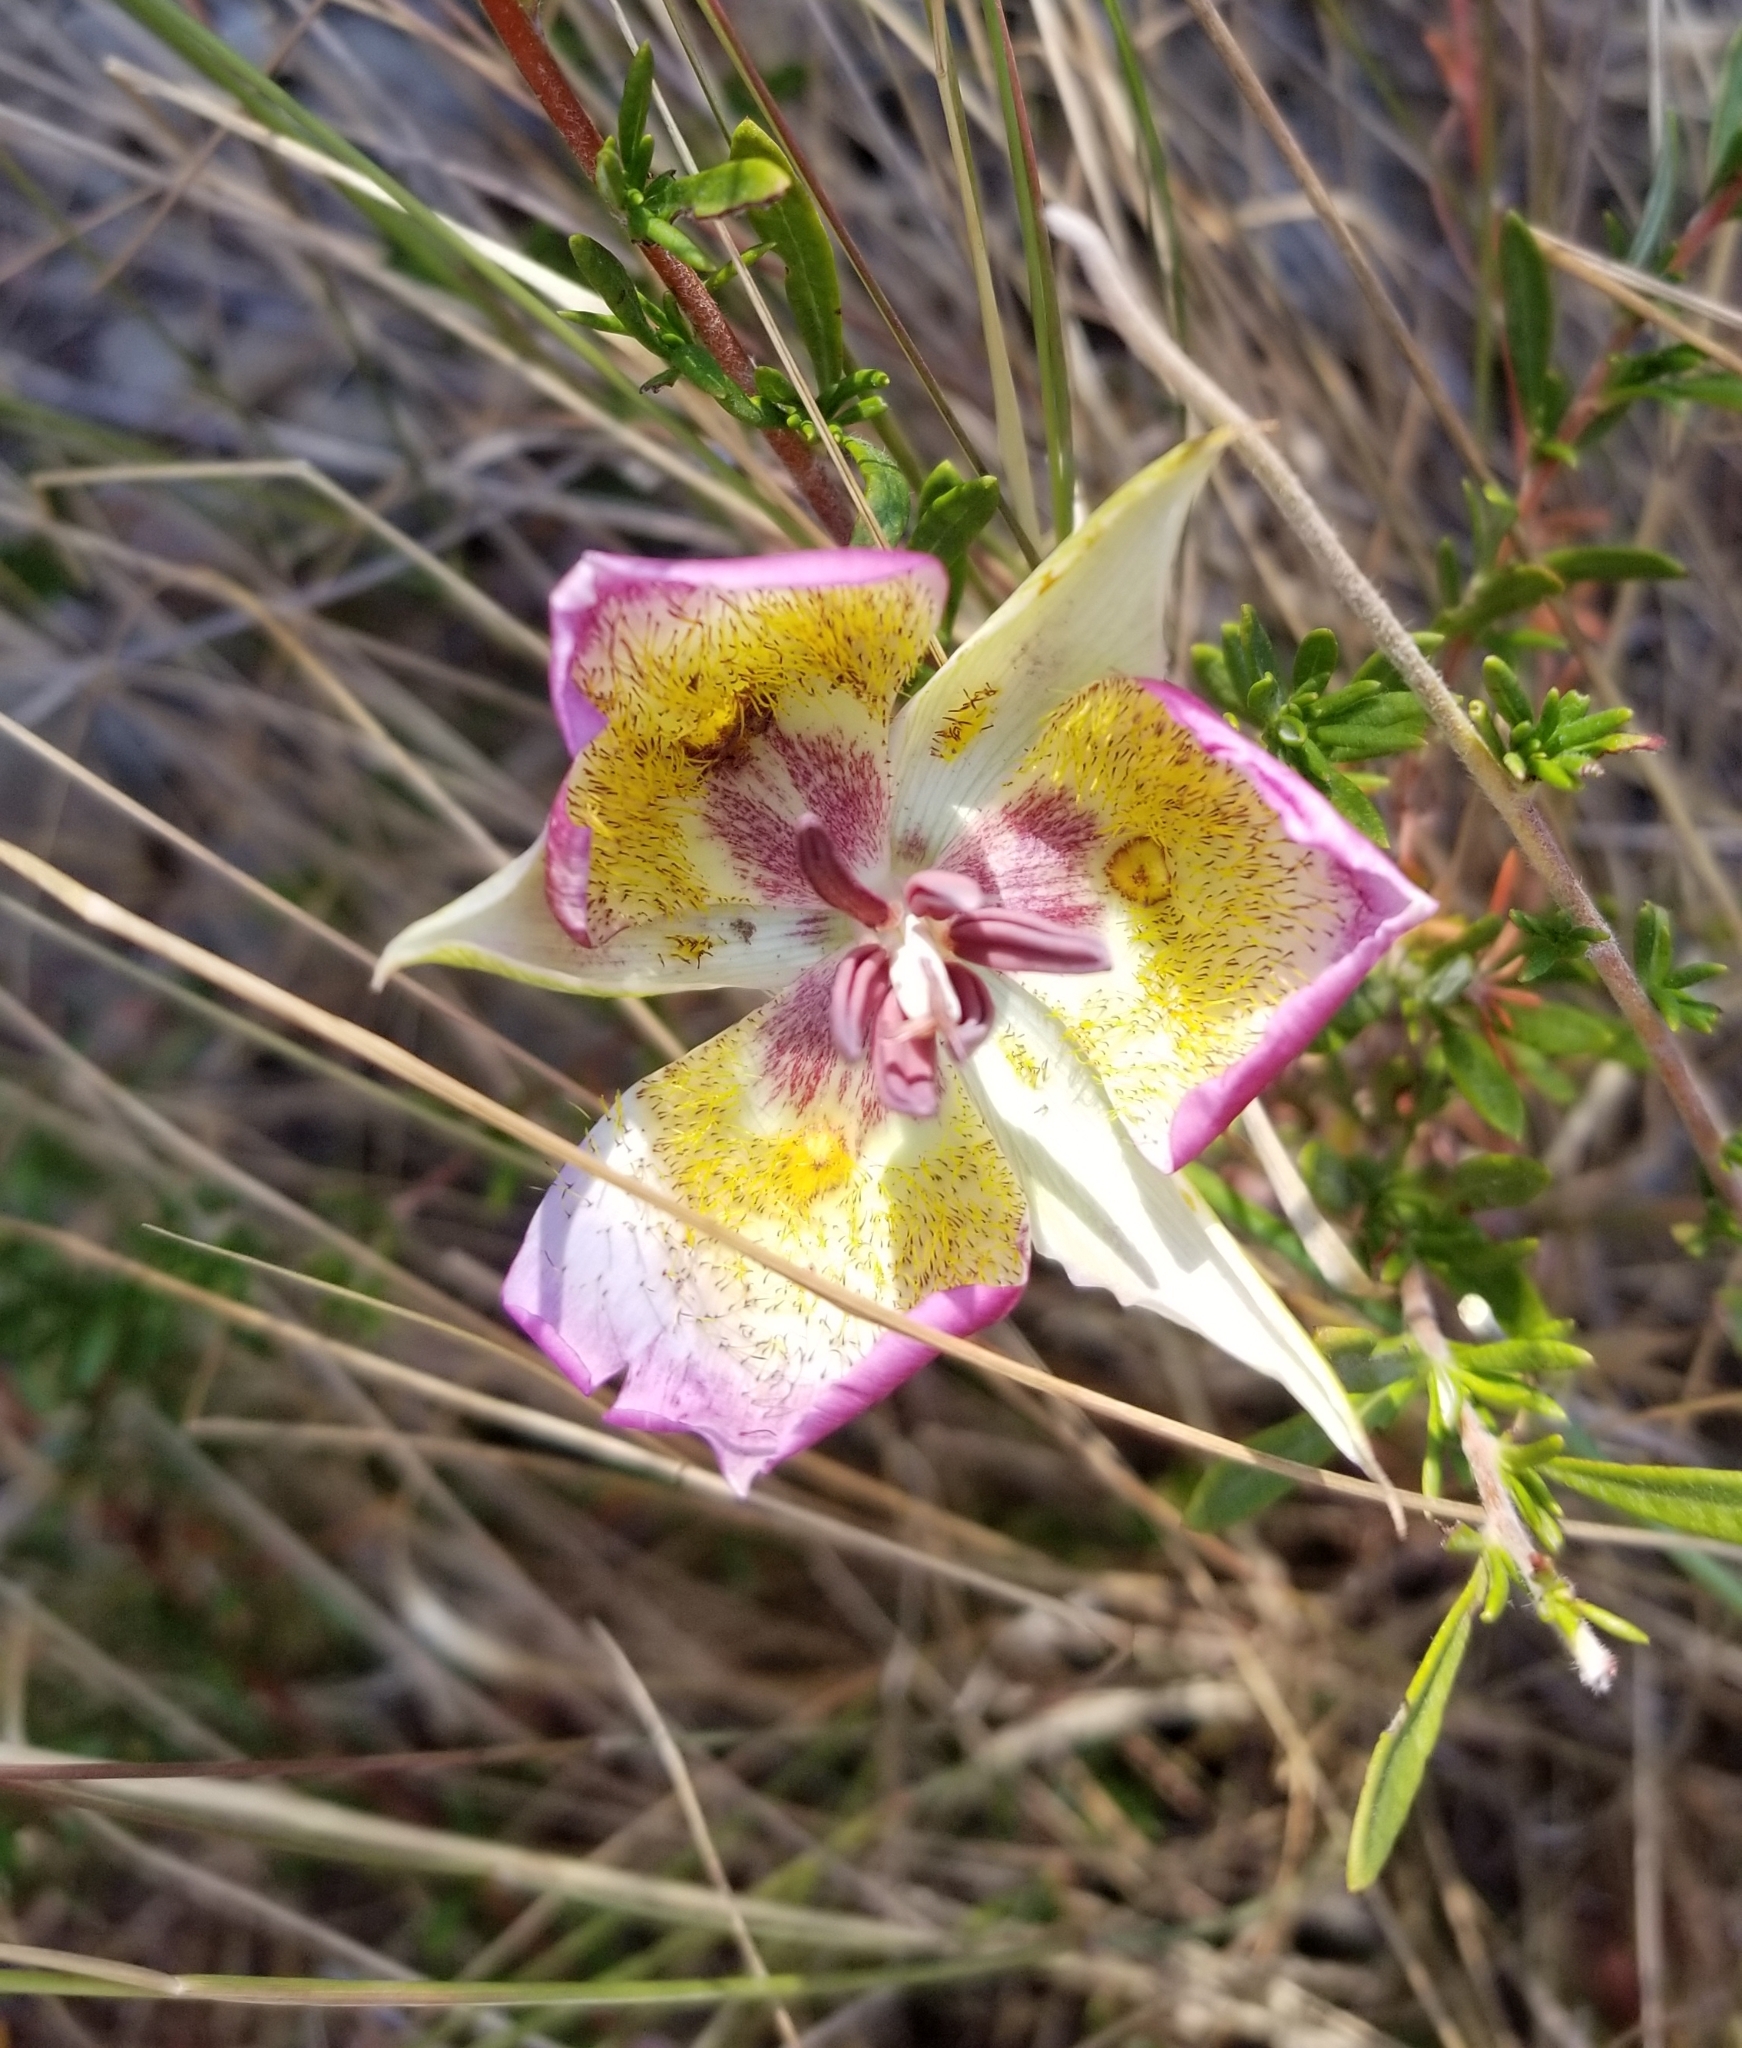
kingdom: Plantae
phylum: Tracheophyta
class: Liliopsida
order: Liliales
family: Liliaceae
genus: Calochortus
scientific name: Calochortus plummerae
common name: Plummer's mariposa-lily
